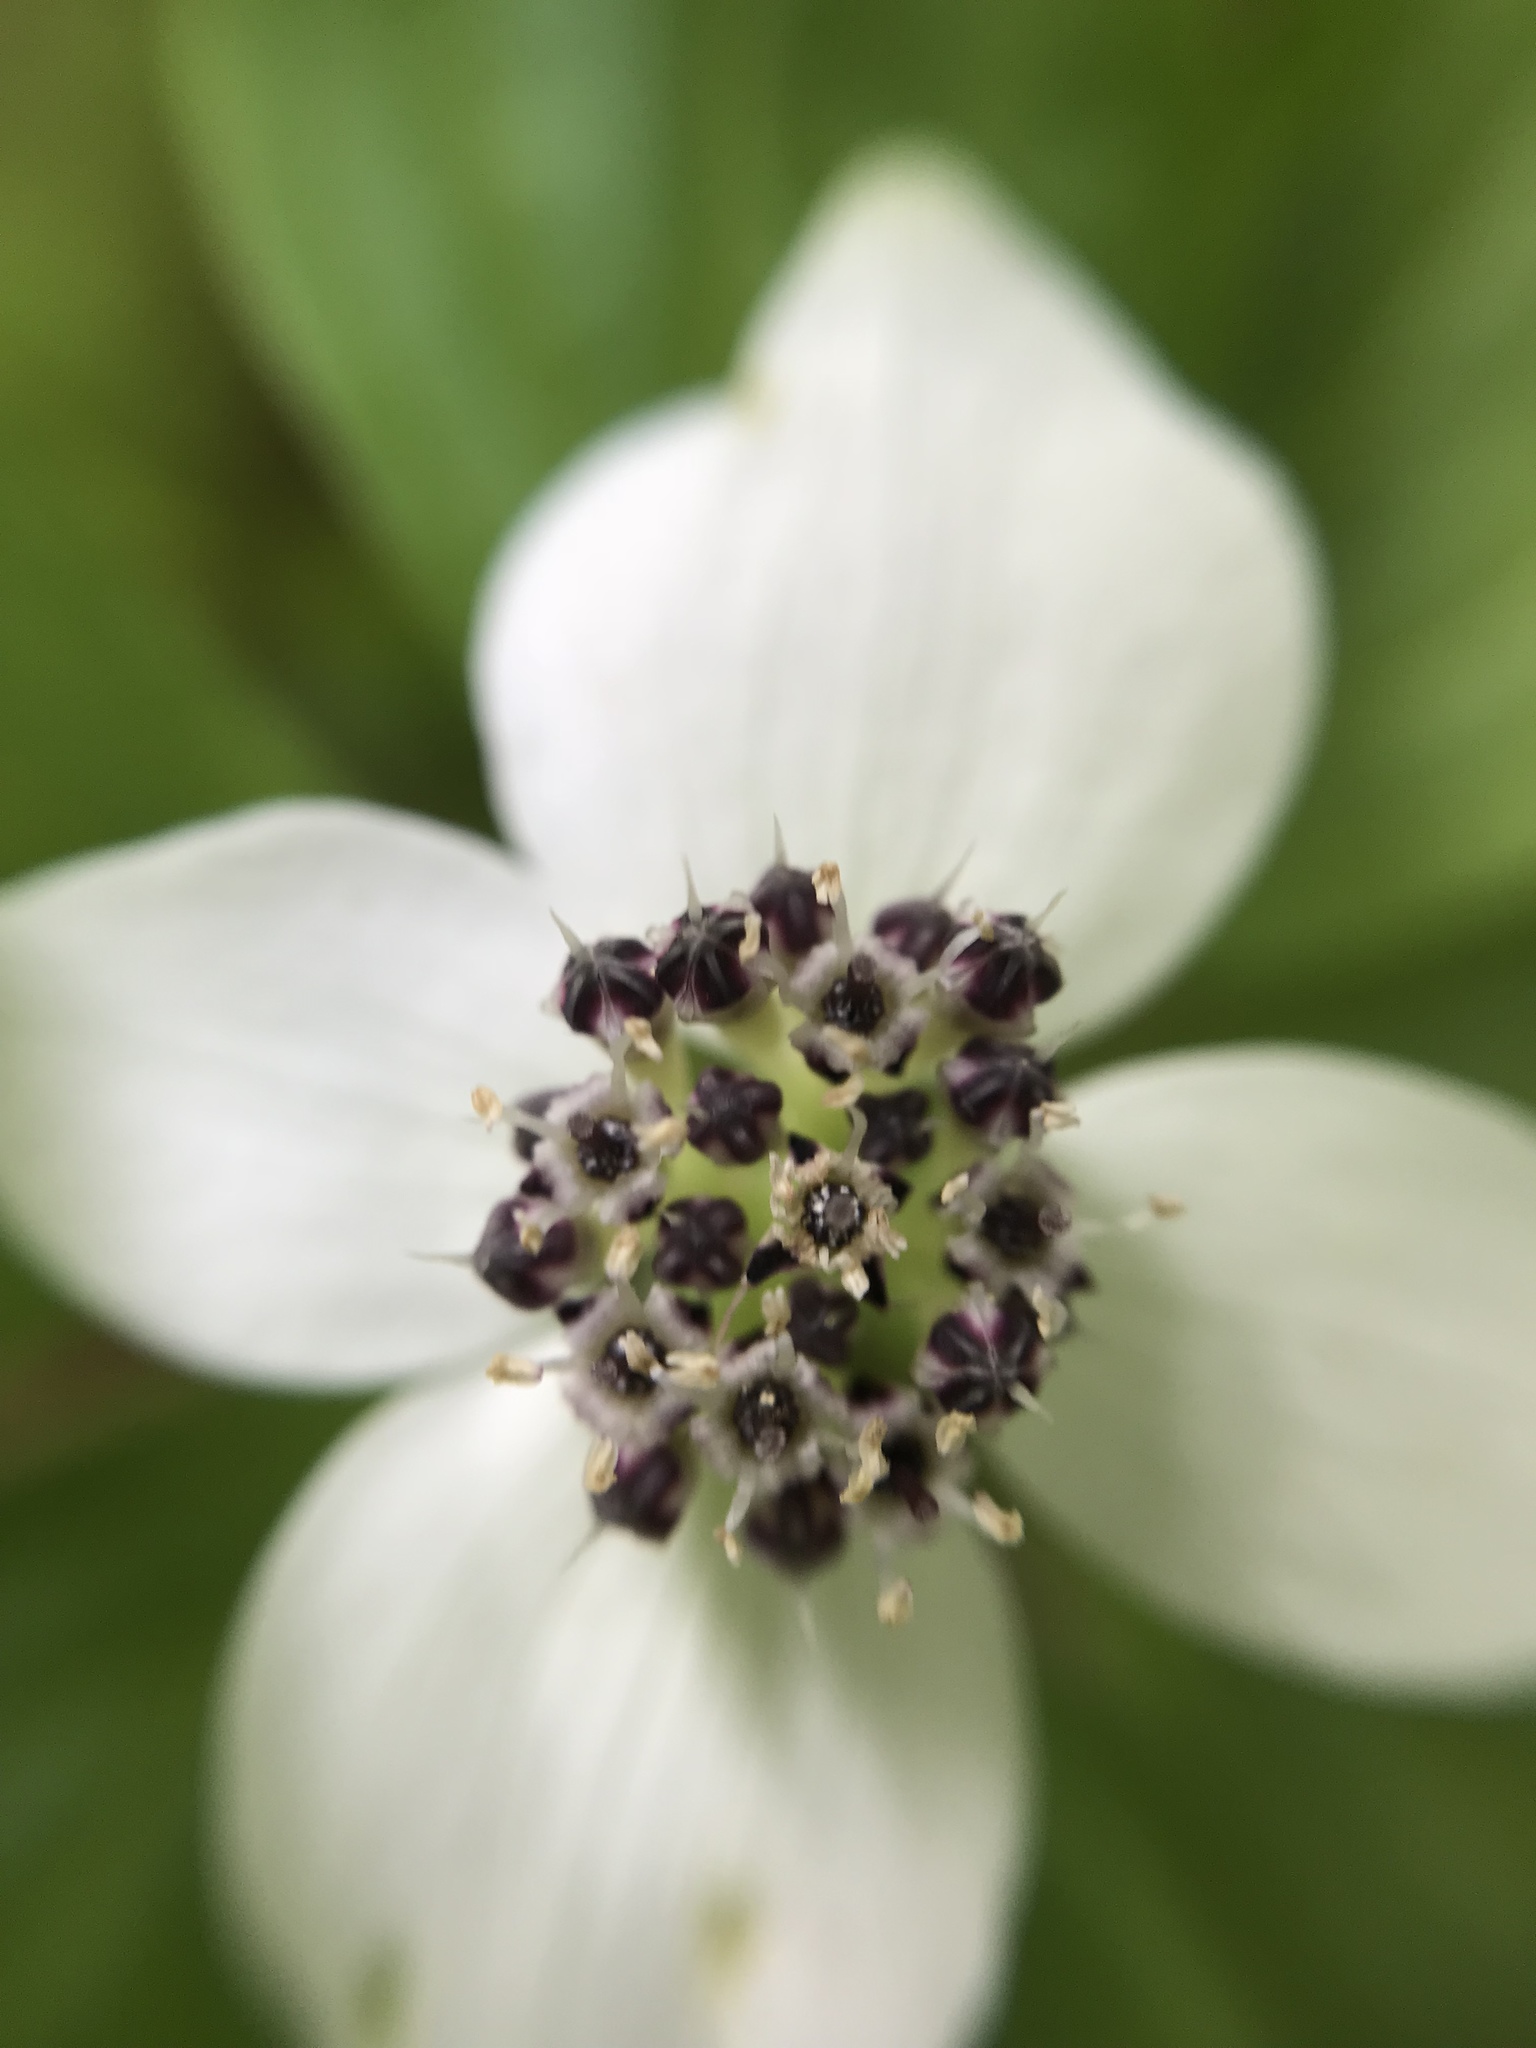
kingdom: Plantae
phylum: Tracheophyta
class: Magnoliopsida
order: Cornales
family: Cornaceae
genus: Cornus
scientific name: Cornus unalaschkensis
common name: Alaska bunchberry
